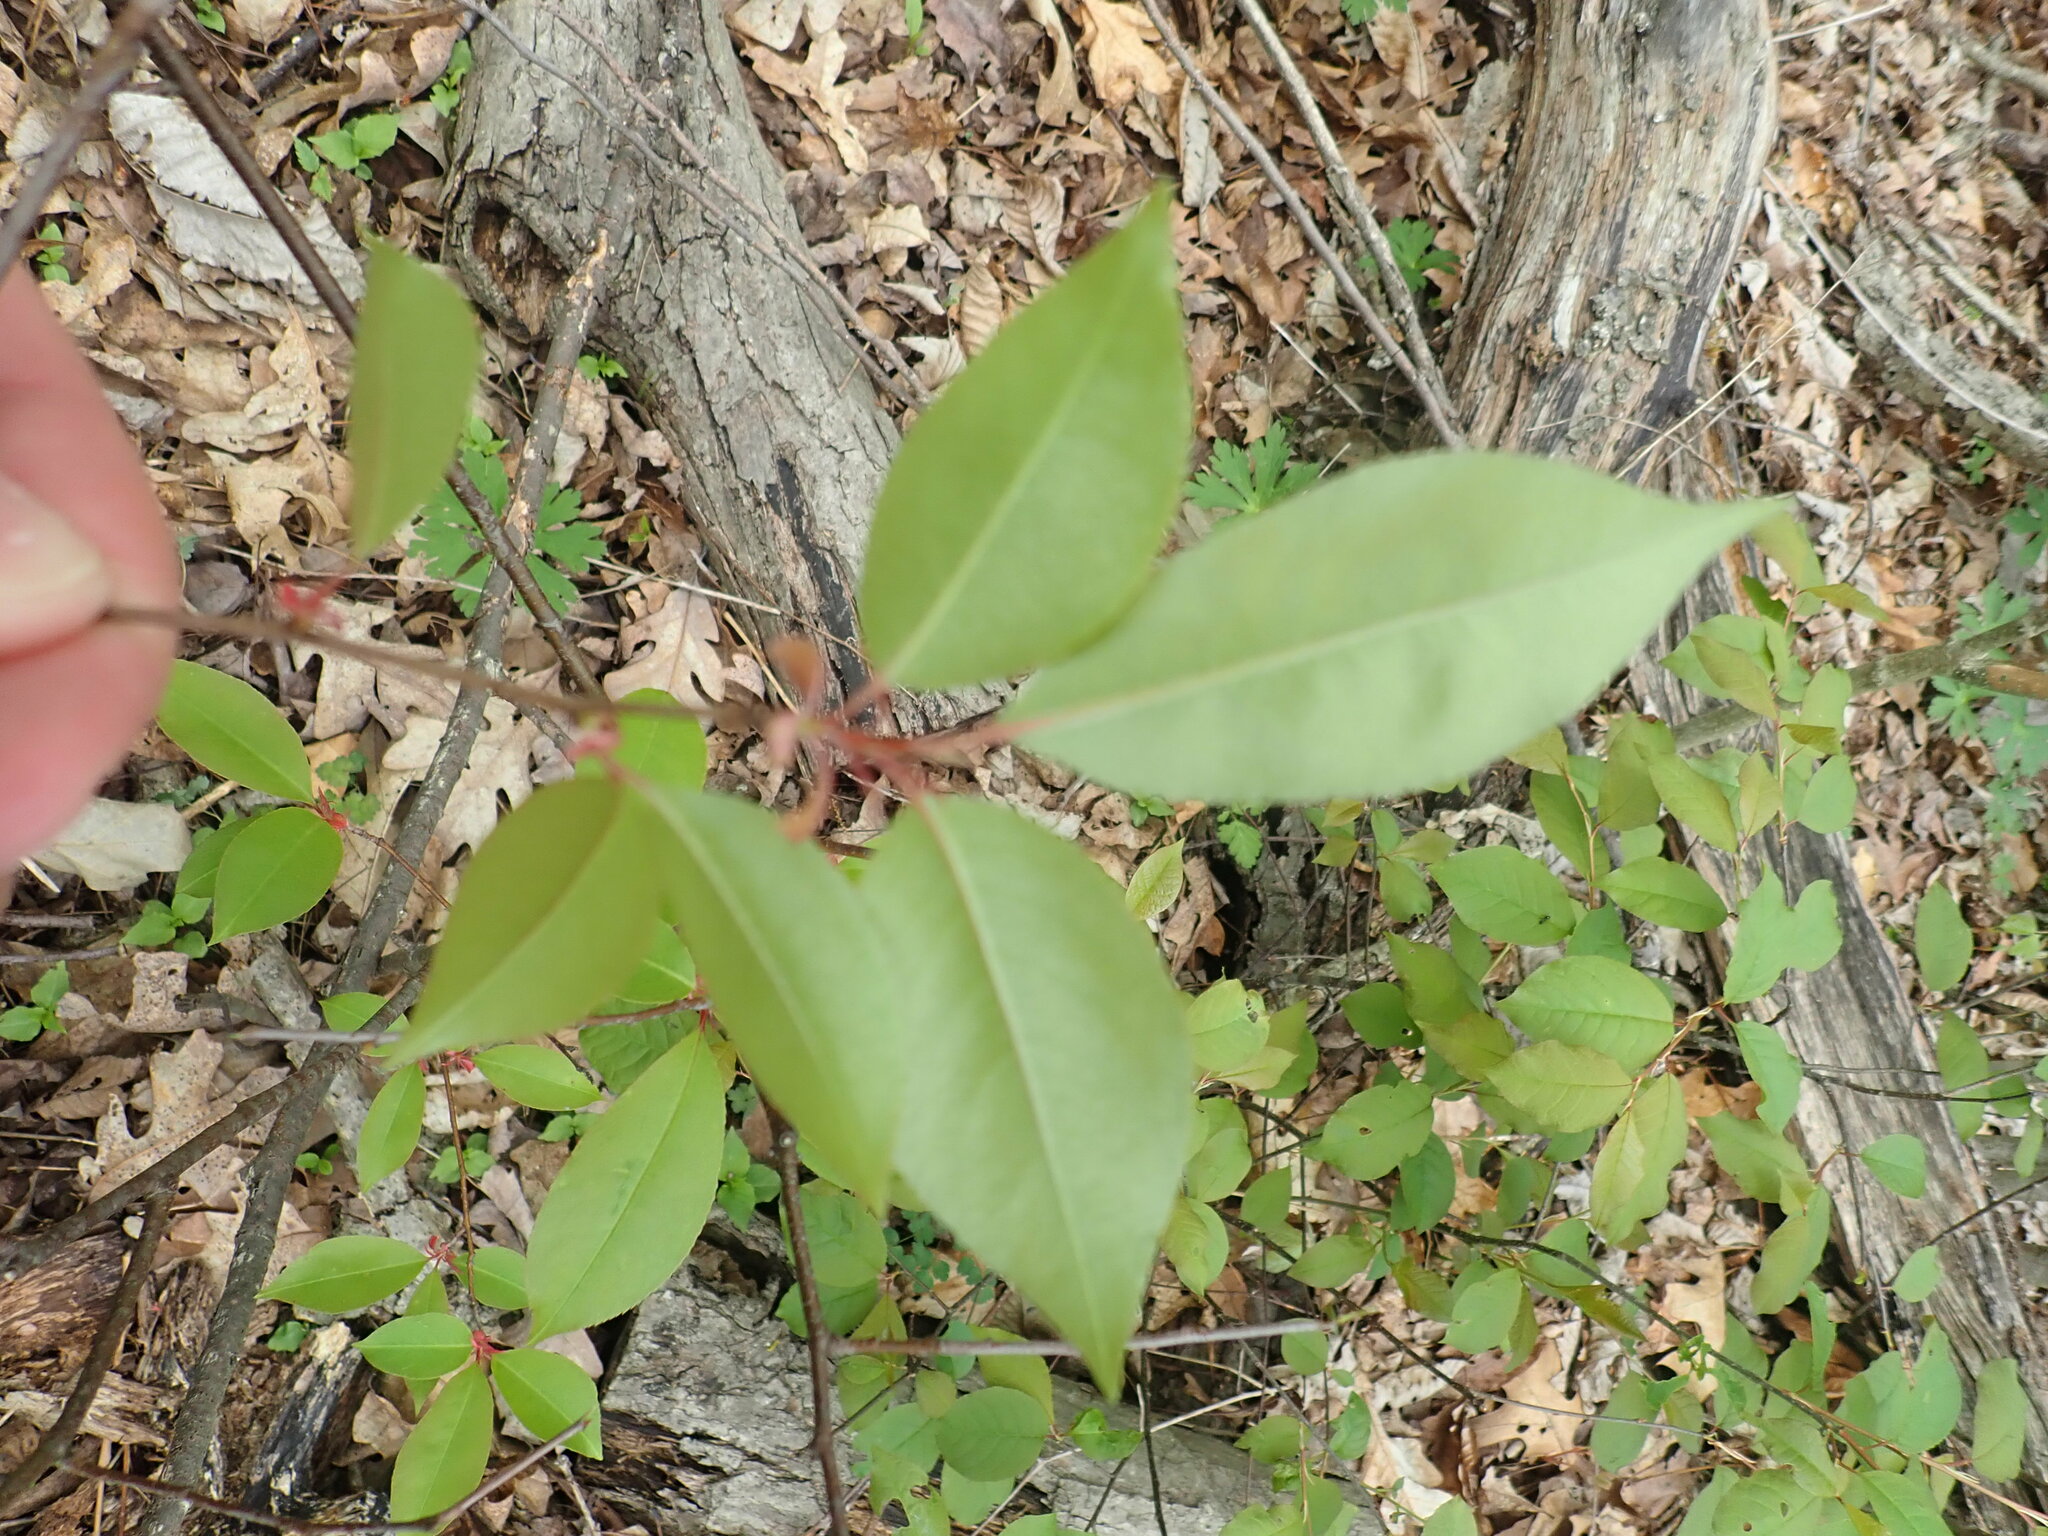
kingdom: Plantae
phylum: Tracheophyta
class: Magnoliopsida
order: Rosales
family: Rosaceae
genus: Prunus
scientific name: Prunus serotina
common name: Black cherry
